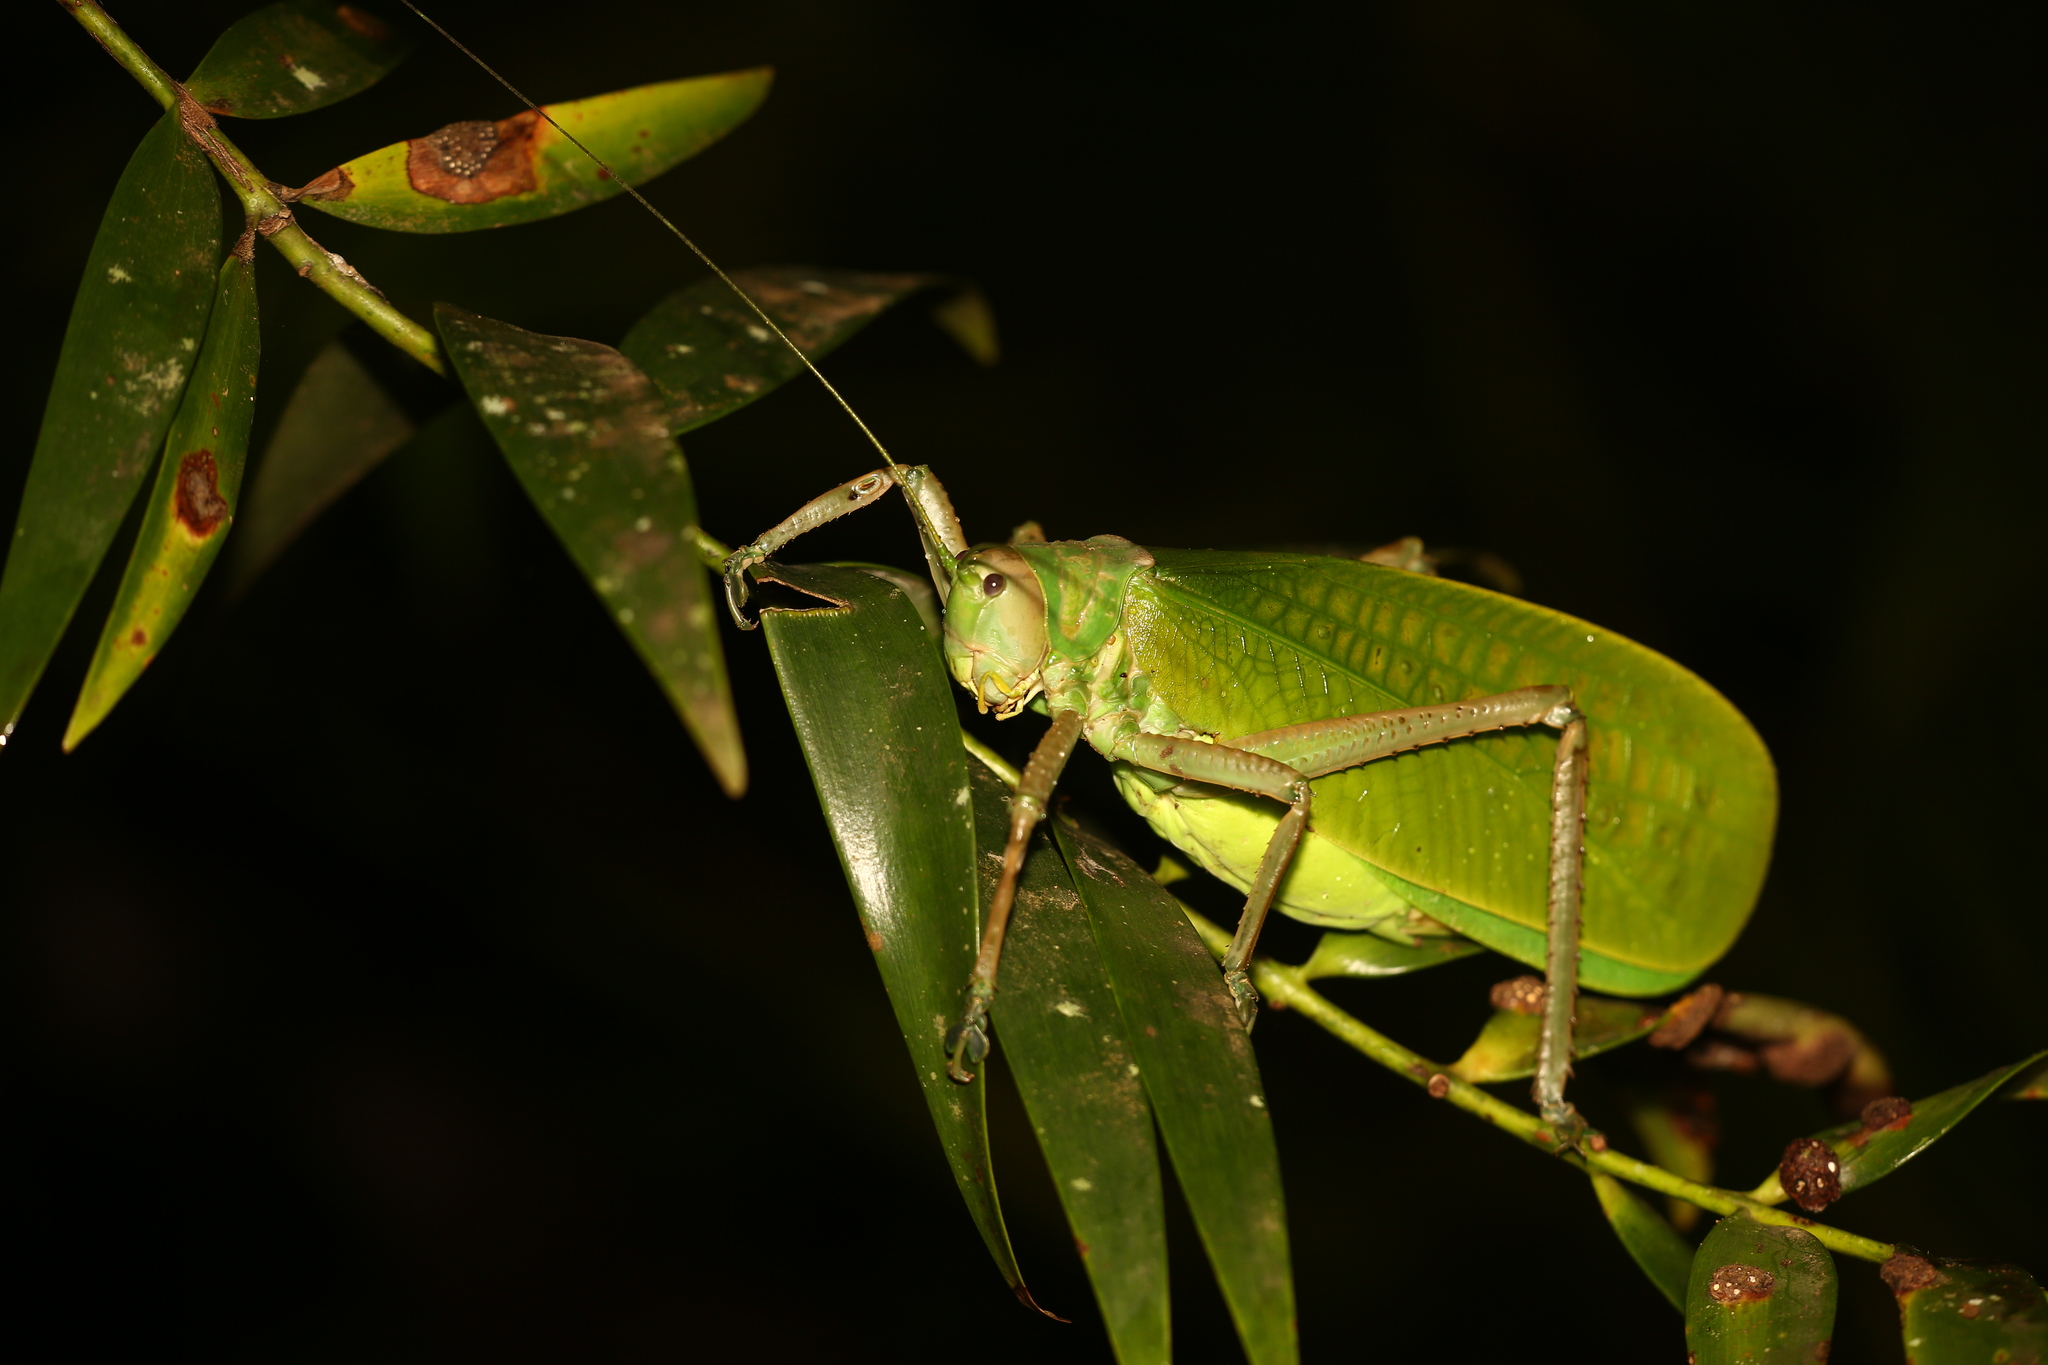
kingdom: Animalia
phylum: Arthropoda
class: Insecta
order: Orthoptera
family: Tettigoniidae
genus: Pseudophyllanax
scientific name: Pseudophyllanax imperialis
